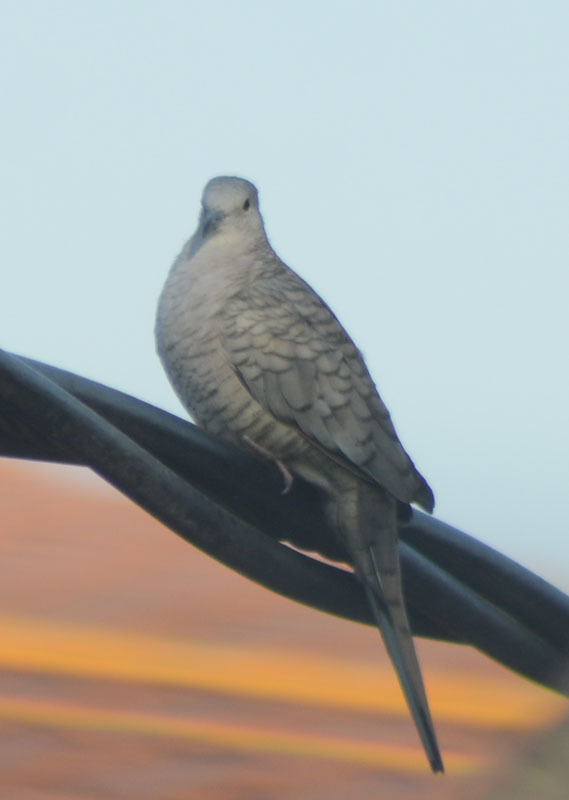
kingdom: Animalia
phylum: Chordata
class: Aves
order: Columbiformes
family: Columbidae
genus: Columbina
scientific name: Columbina inca
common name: Inca dove
